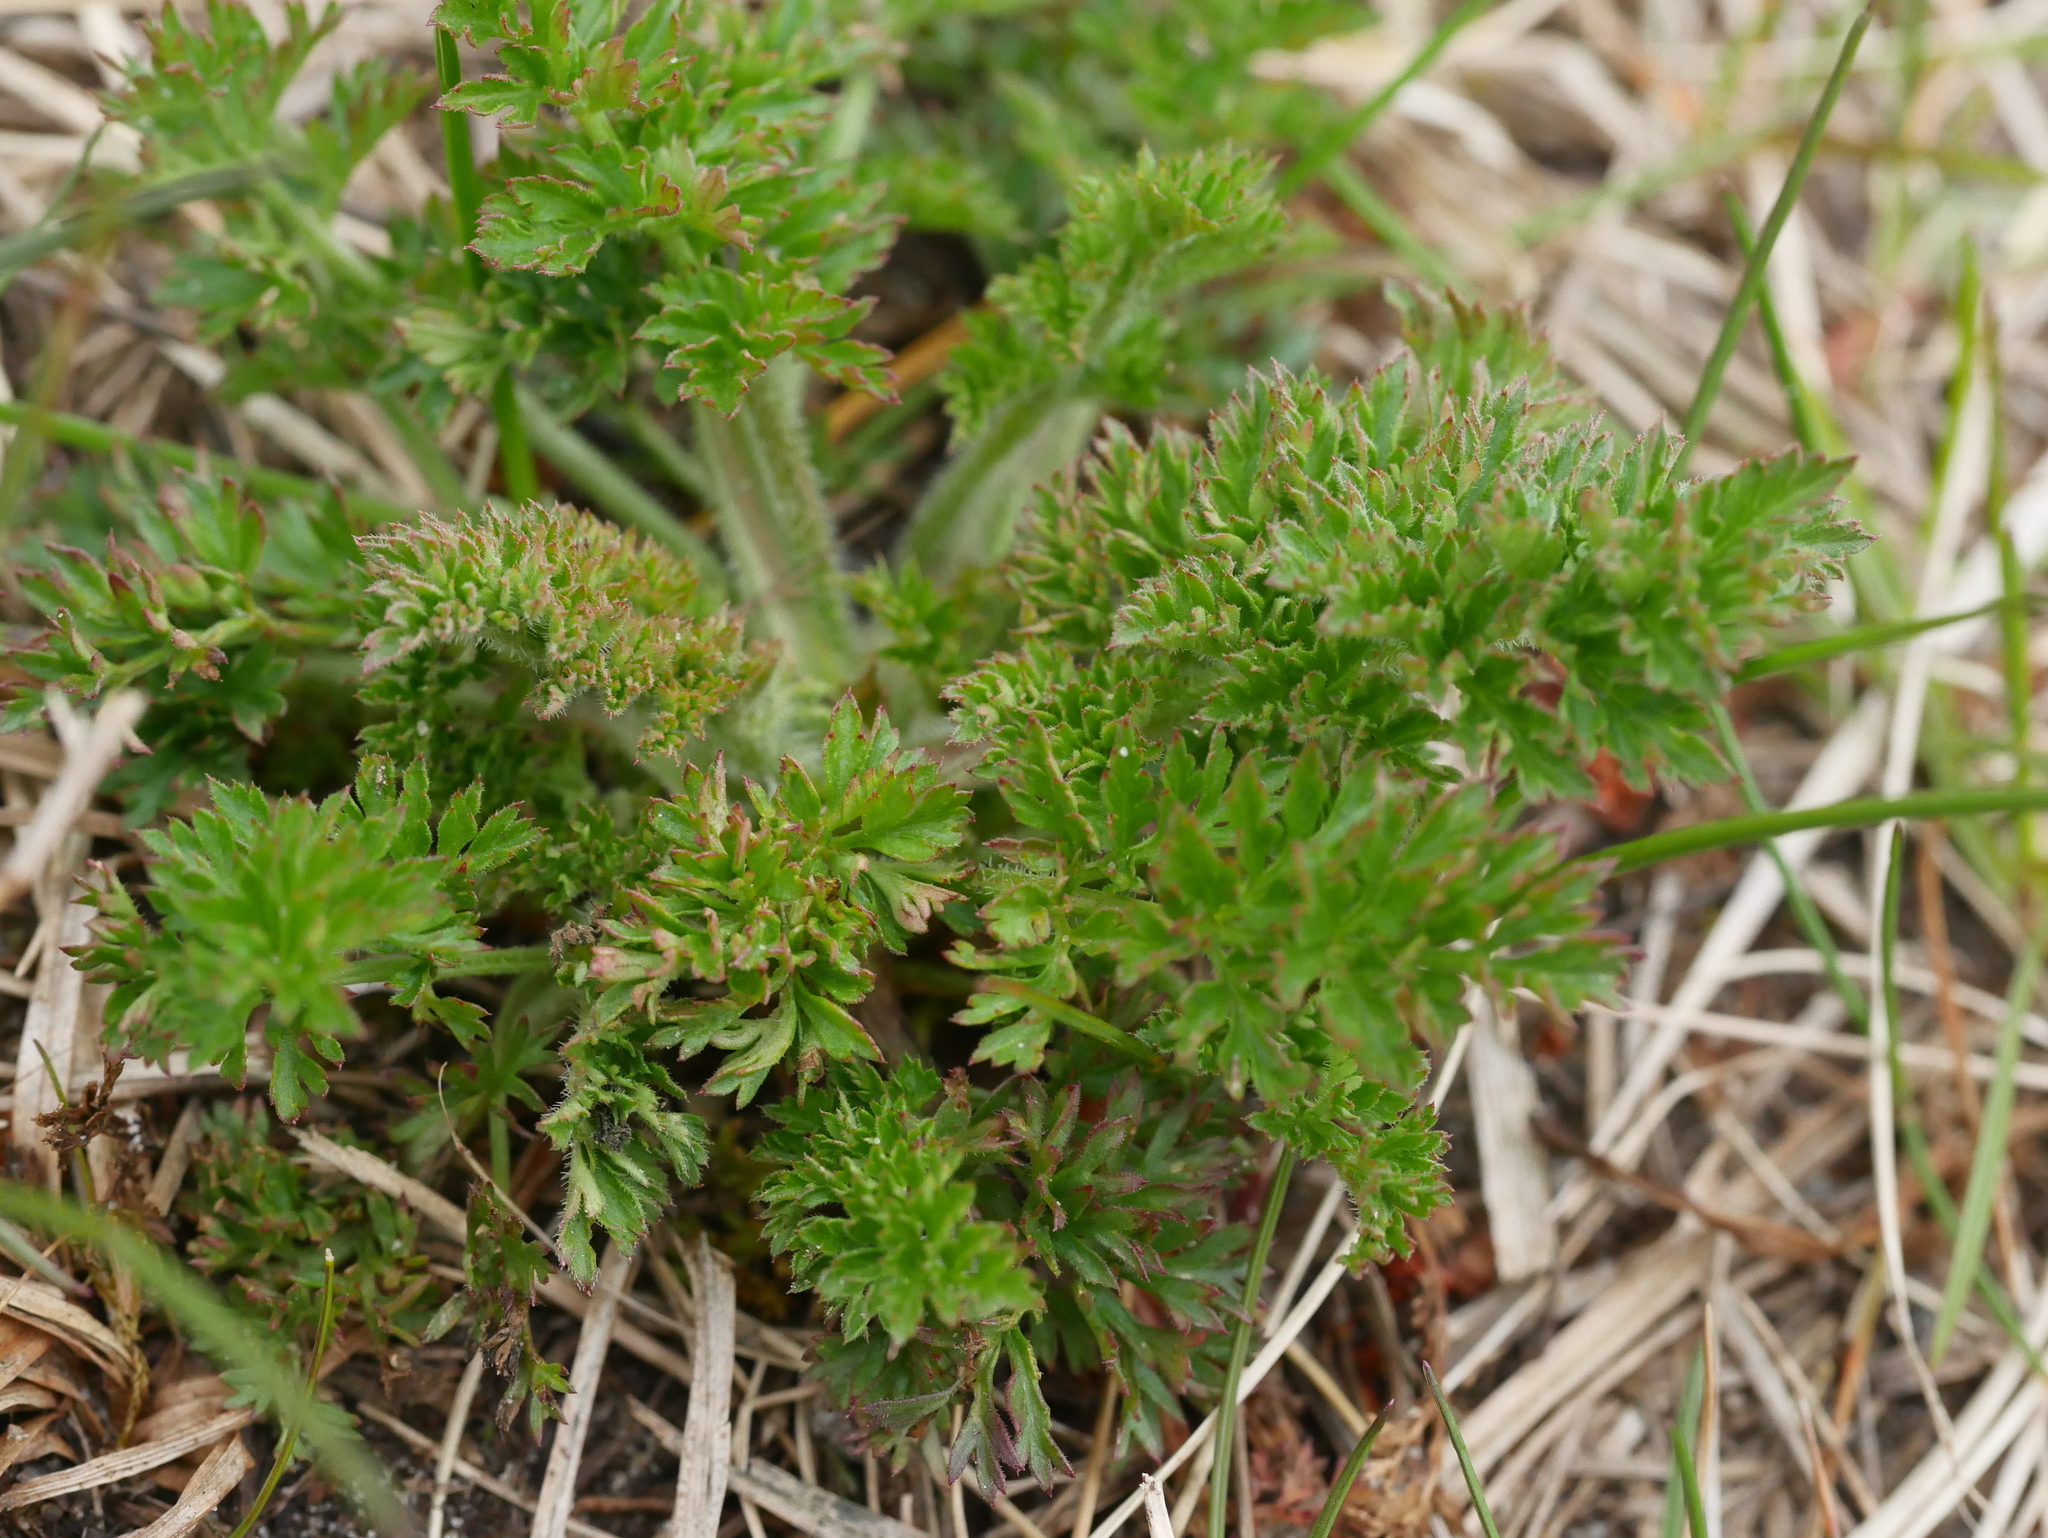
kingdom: Plantae
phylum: Tracheophyta
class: Magnoliopsida
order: Apiales
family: Apiaceae
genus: Daucus
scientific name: Daucus carota
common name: Wild carrot
